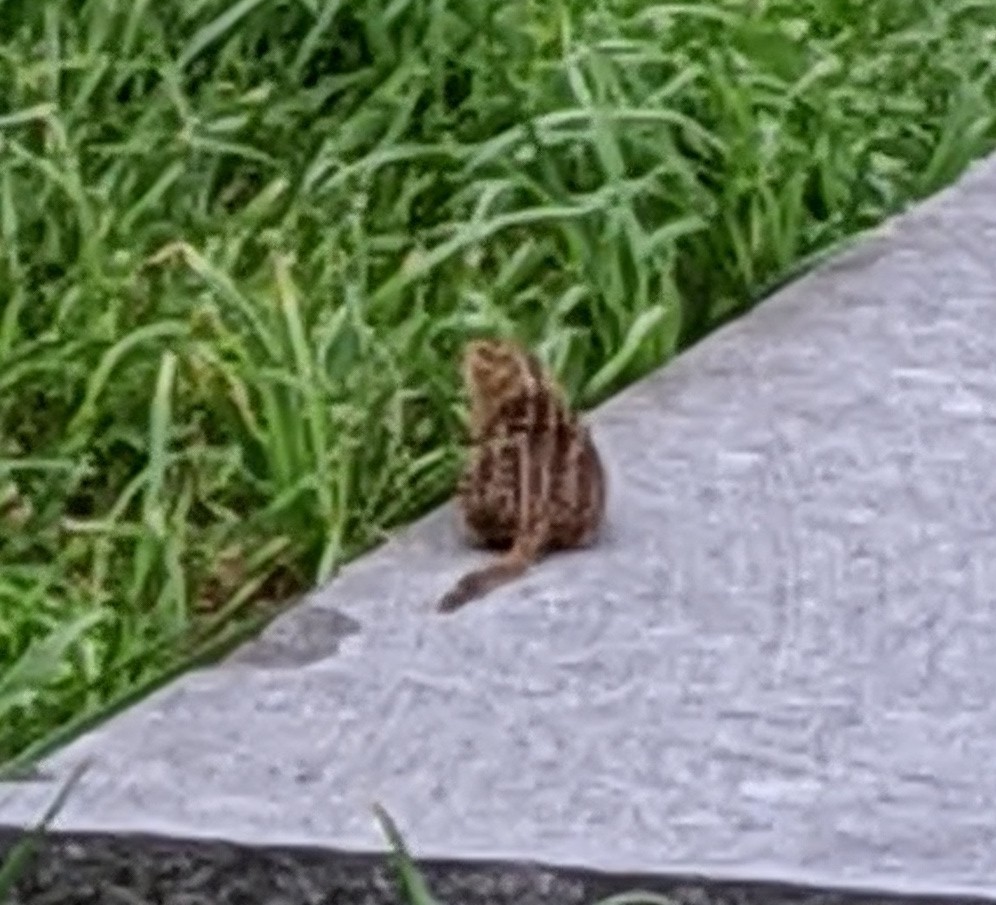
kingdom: Animalia
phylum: Chordata
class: Mammalia
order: Rodentia
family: Sciuridae
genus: Ictidomys
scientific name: Ictidomys tridecemlineatus
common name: Thirteen-lined ground squirrel
